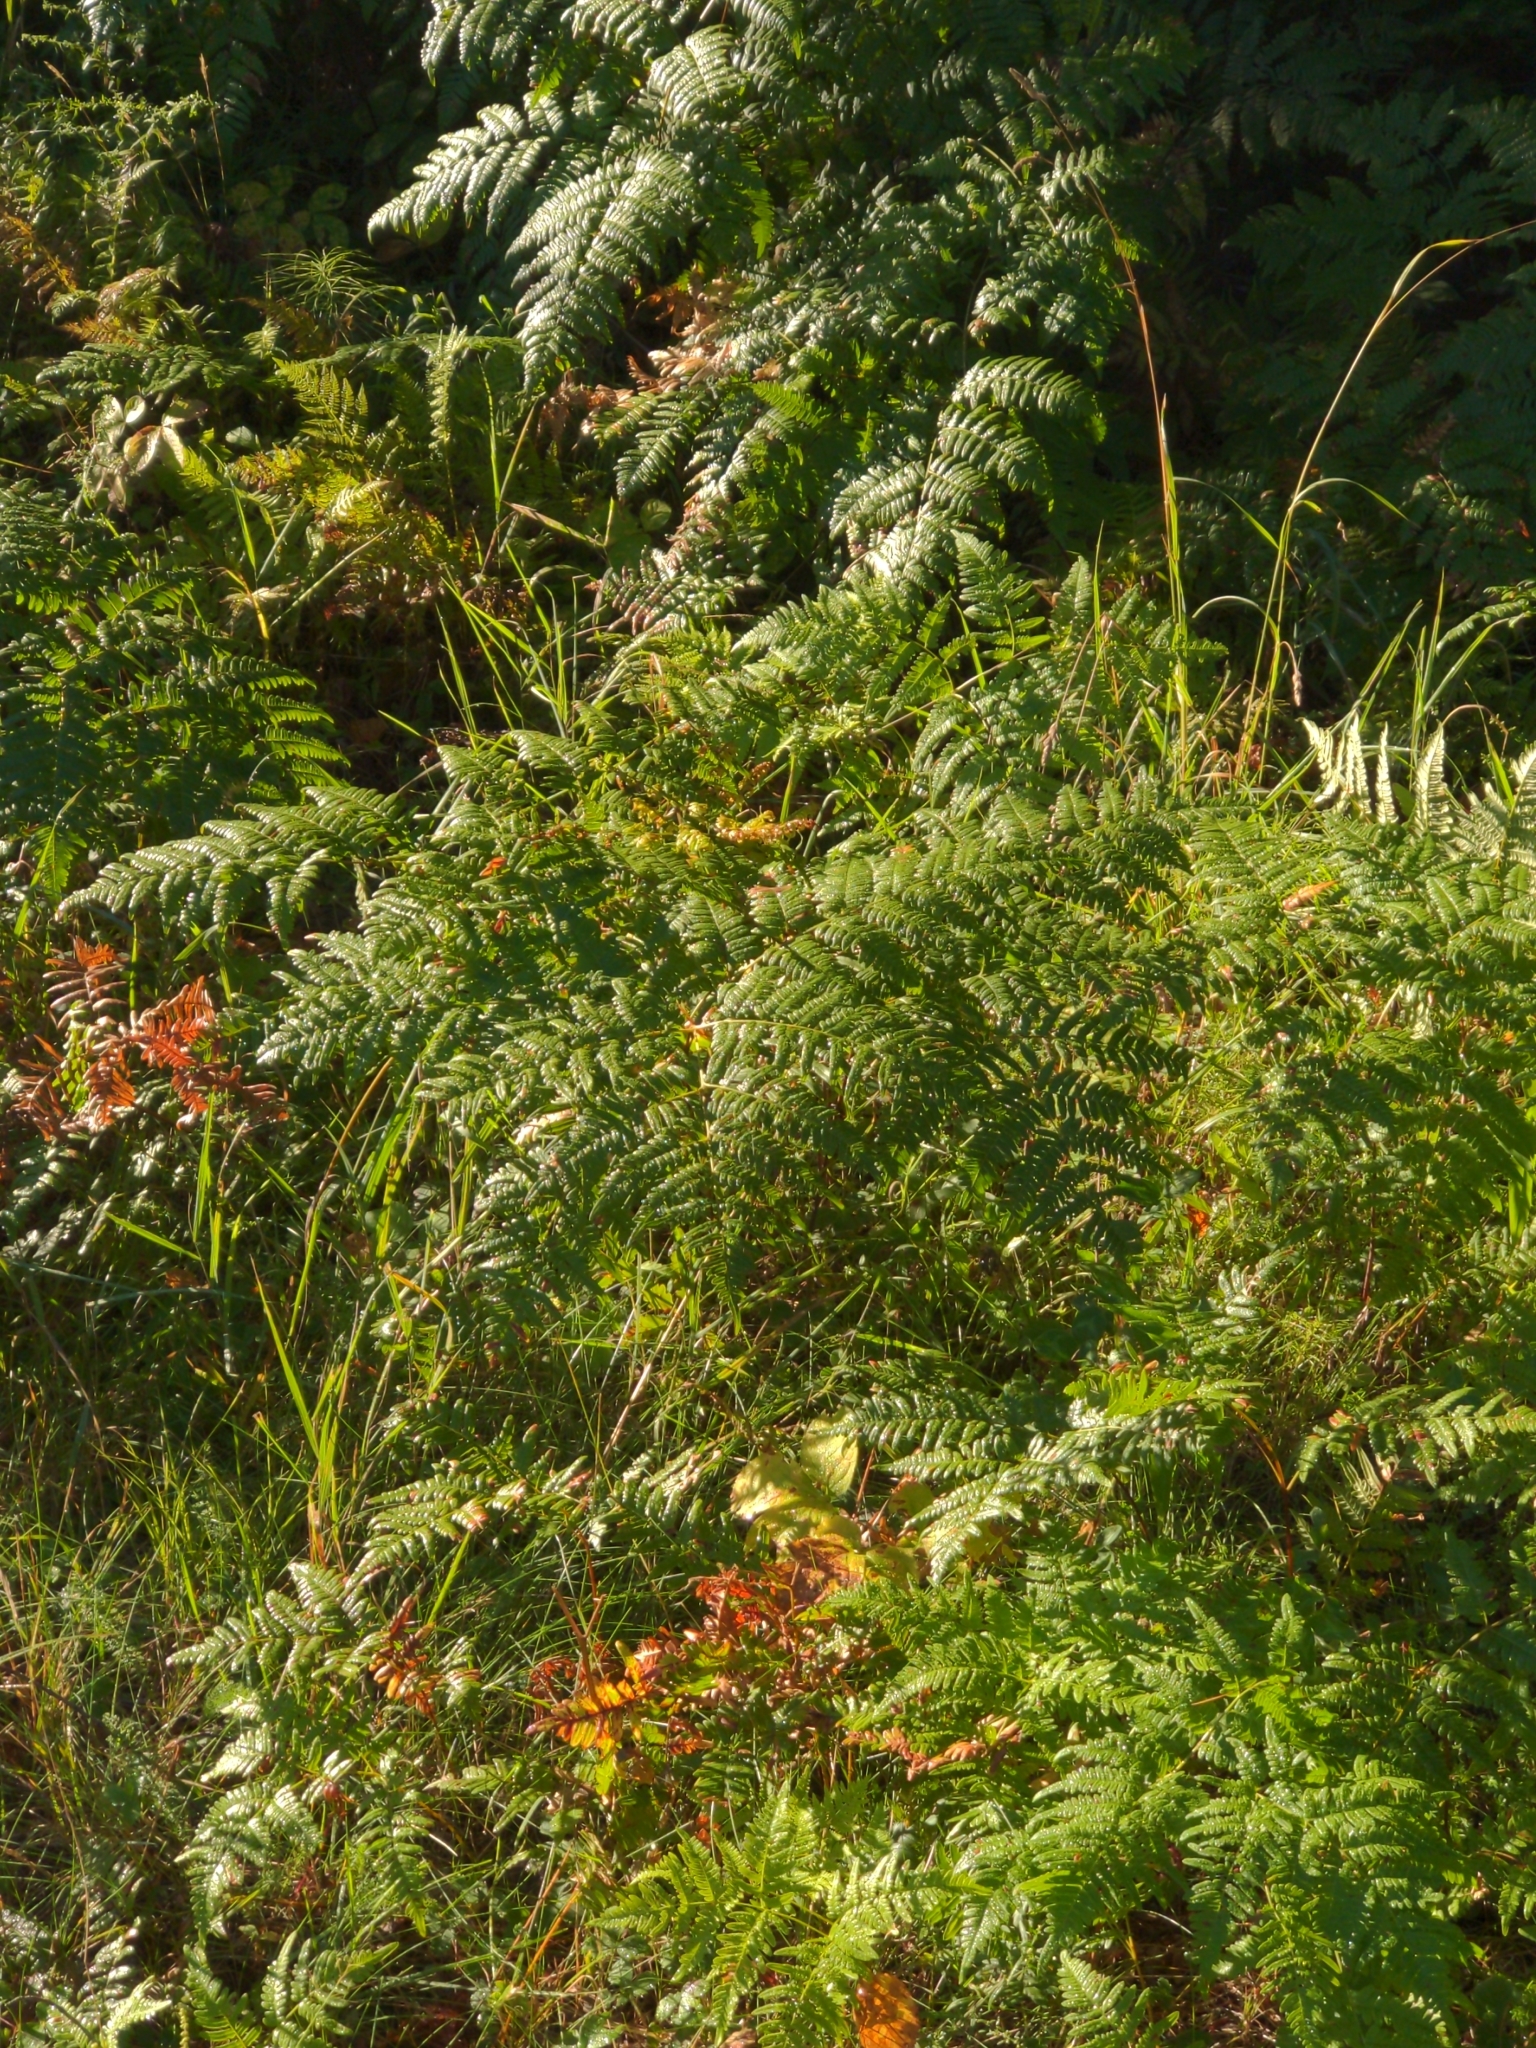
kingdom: Plantae
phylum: Tracheophyta
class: Polypodiopsida
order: Polypodiales
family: Dennstaedtiaceae
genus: Pteridium
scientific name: Pteridium aquilinum
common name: Bracken
